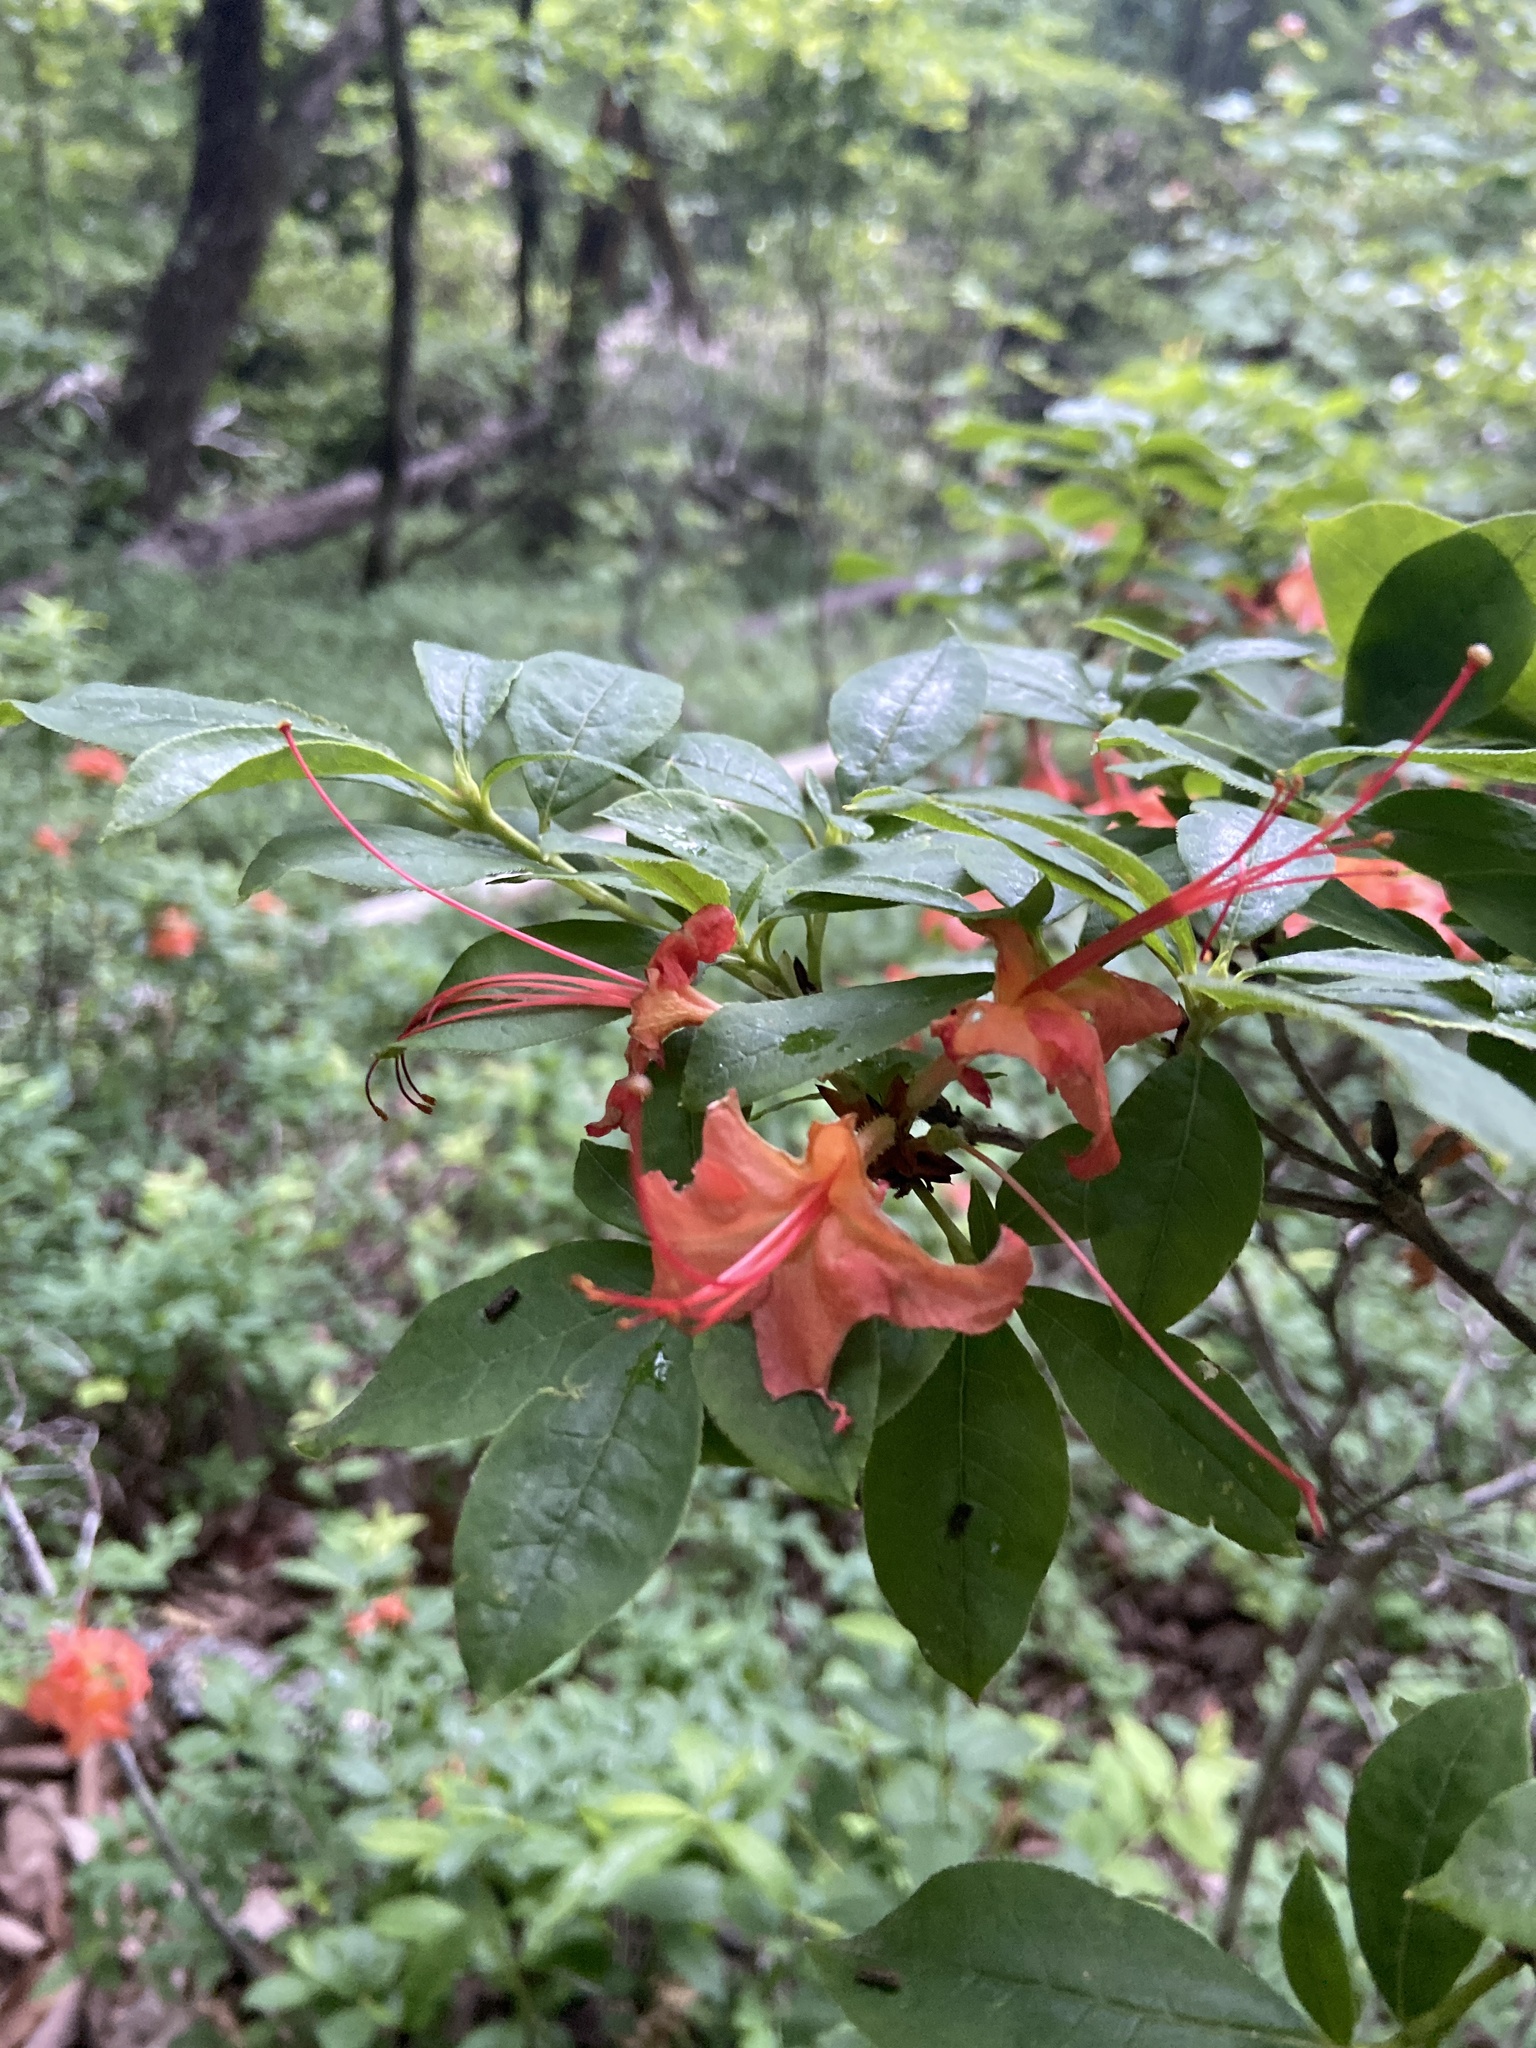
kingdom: Plantae
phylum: Tracheophyta
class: Magnoliopsida
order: Ericales
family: Ericaceae
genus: Rhododendron
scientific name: Rhododendron calendulaceum
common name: Flame azalea
